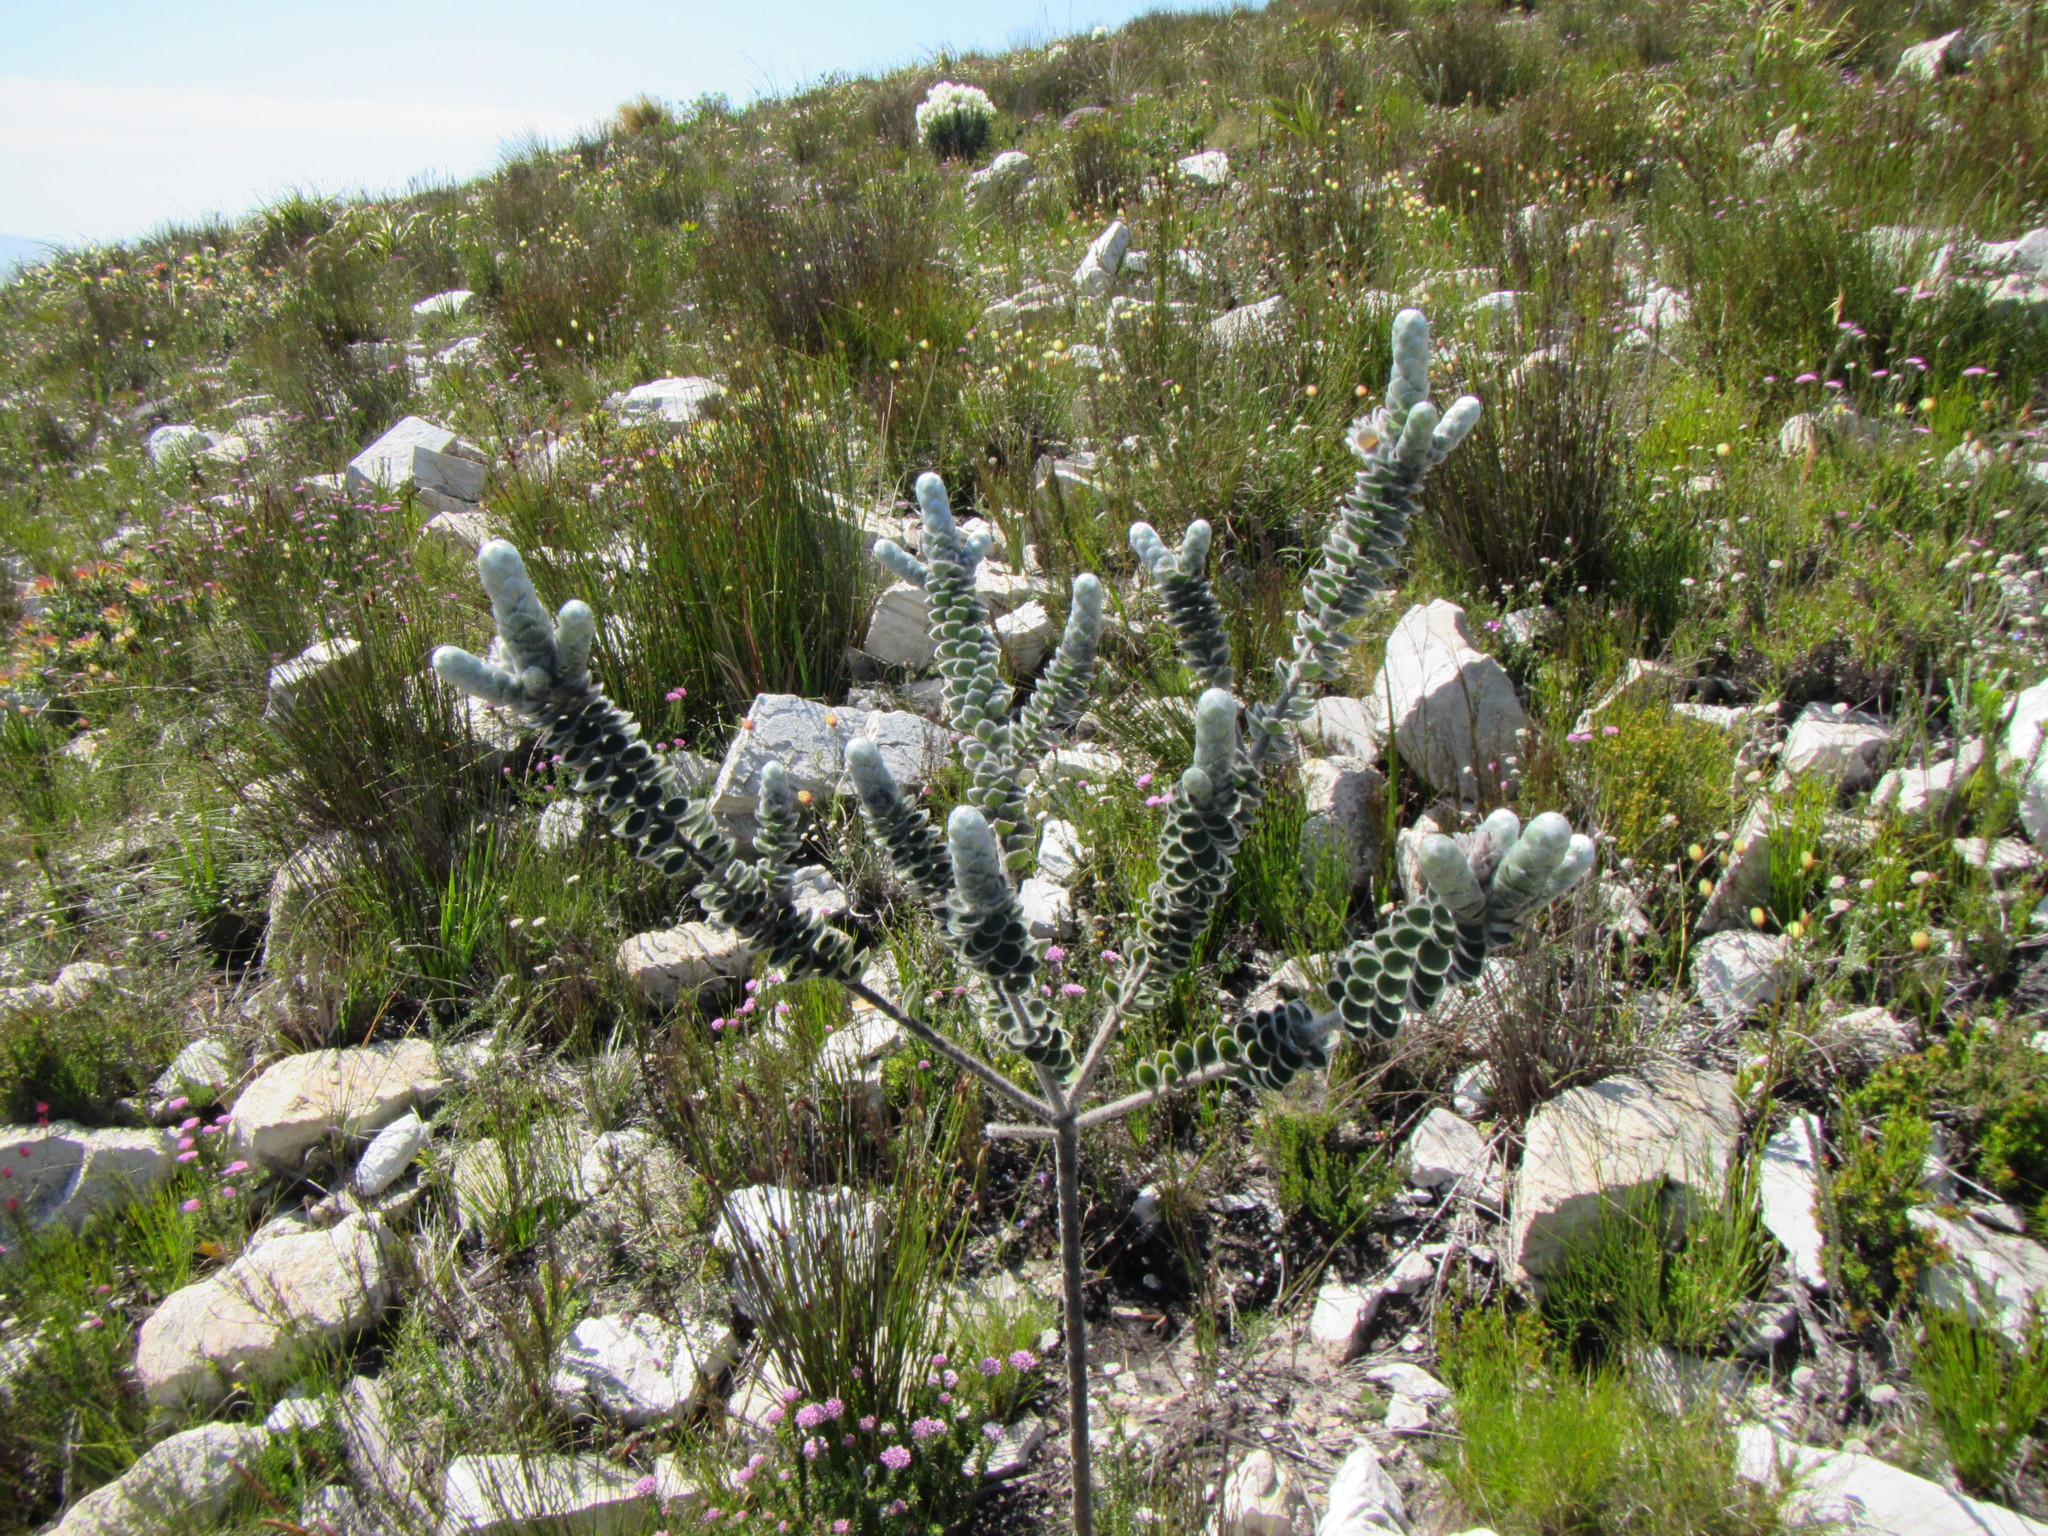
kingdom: Plantae
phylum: Tracheophyta
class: Magnoliopsida
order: Fabales
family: Fabaceae
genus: Liparia
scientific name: Liparia vestita
